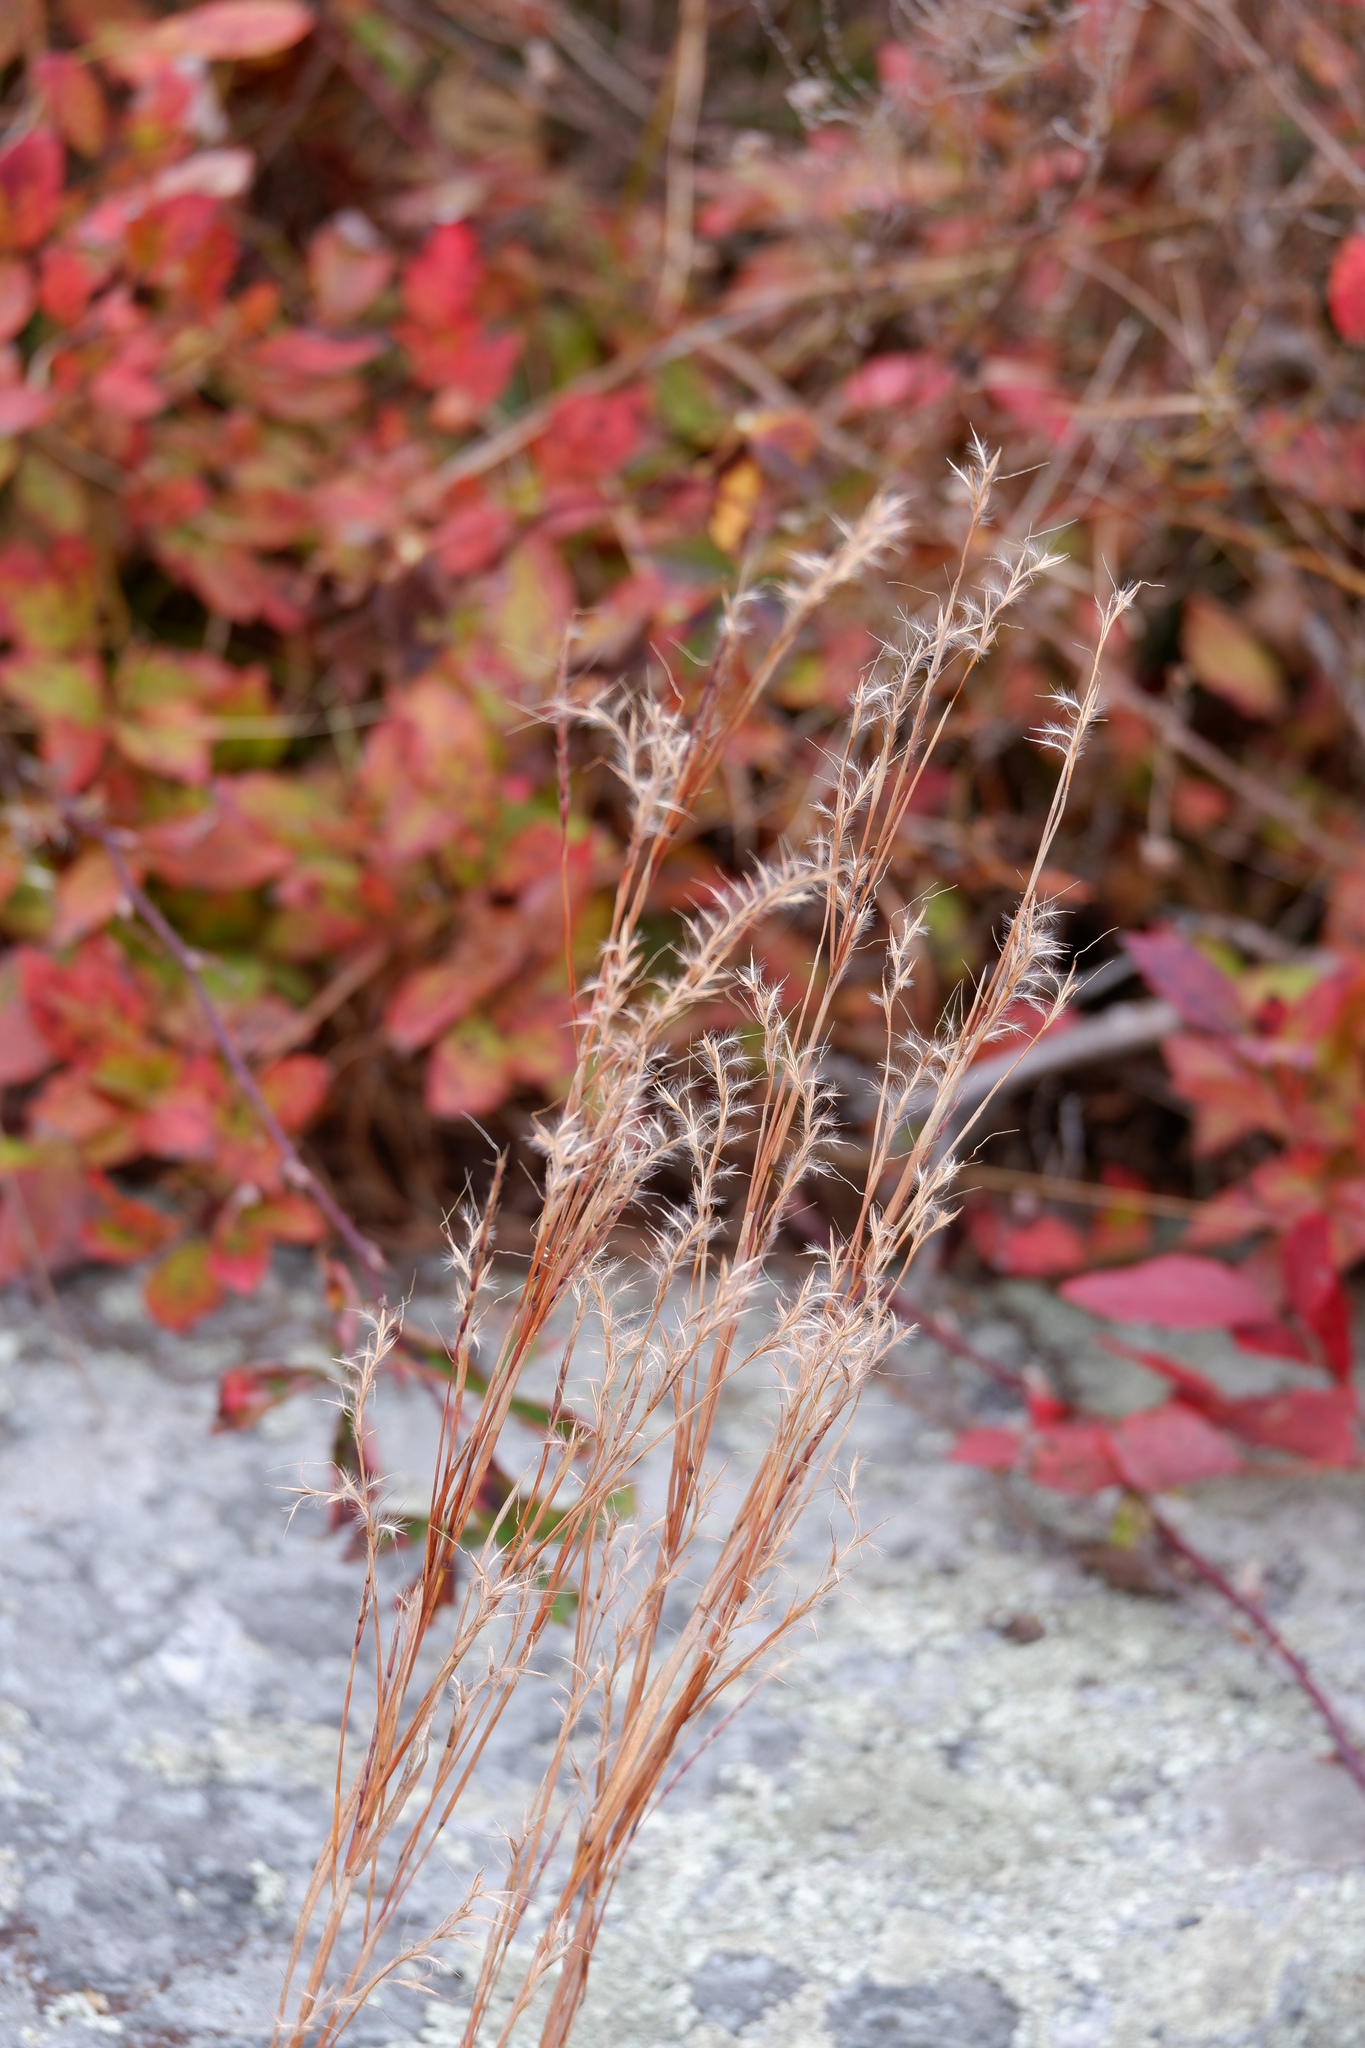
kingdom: Plantae
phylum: Tracheophyta
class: Liliopsida
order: Poales
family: Poaceae
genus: Schizachyrium
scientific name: Schizachyrium scoparium
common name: Little bluestem
